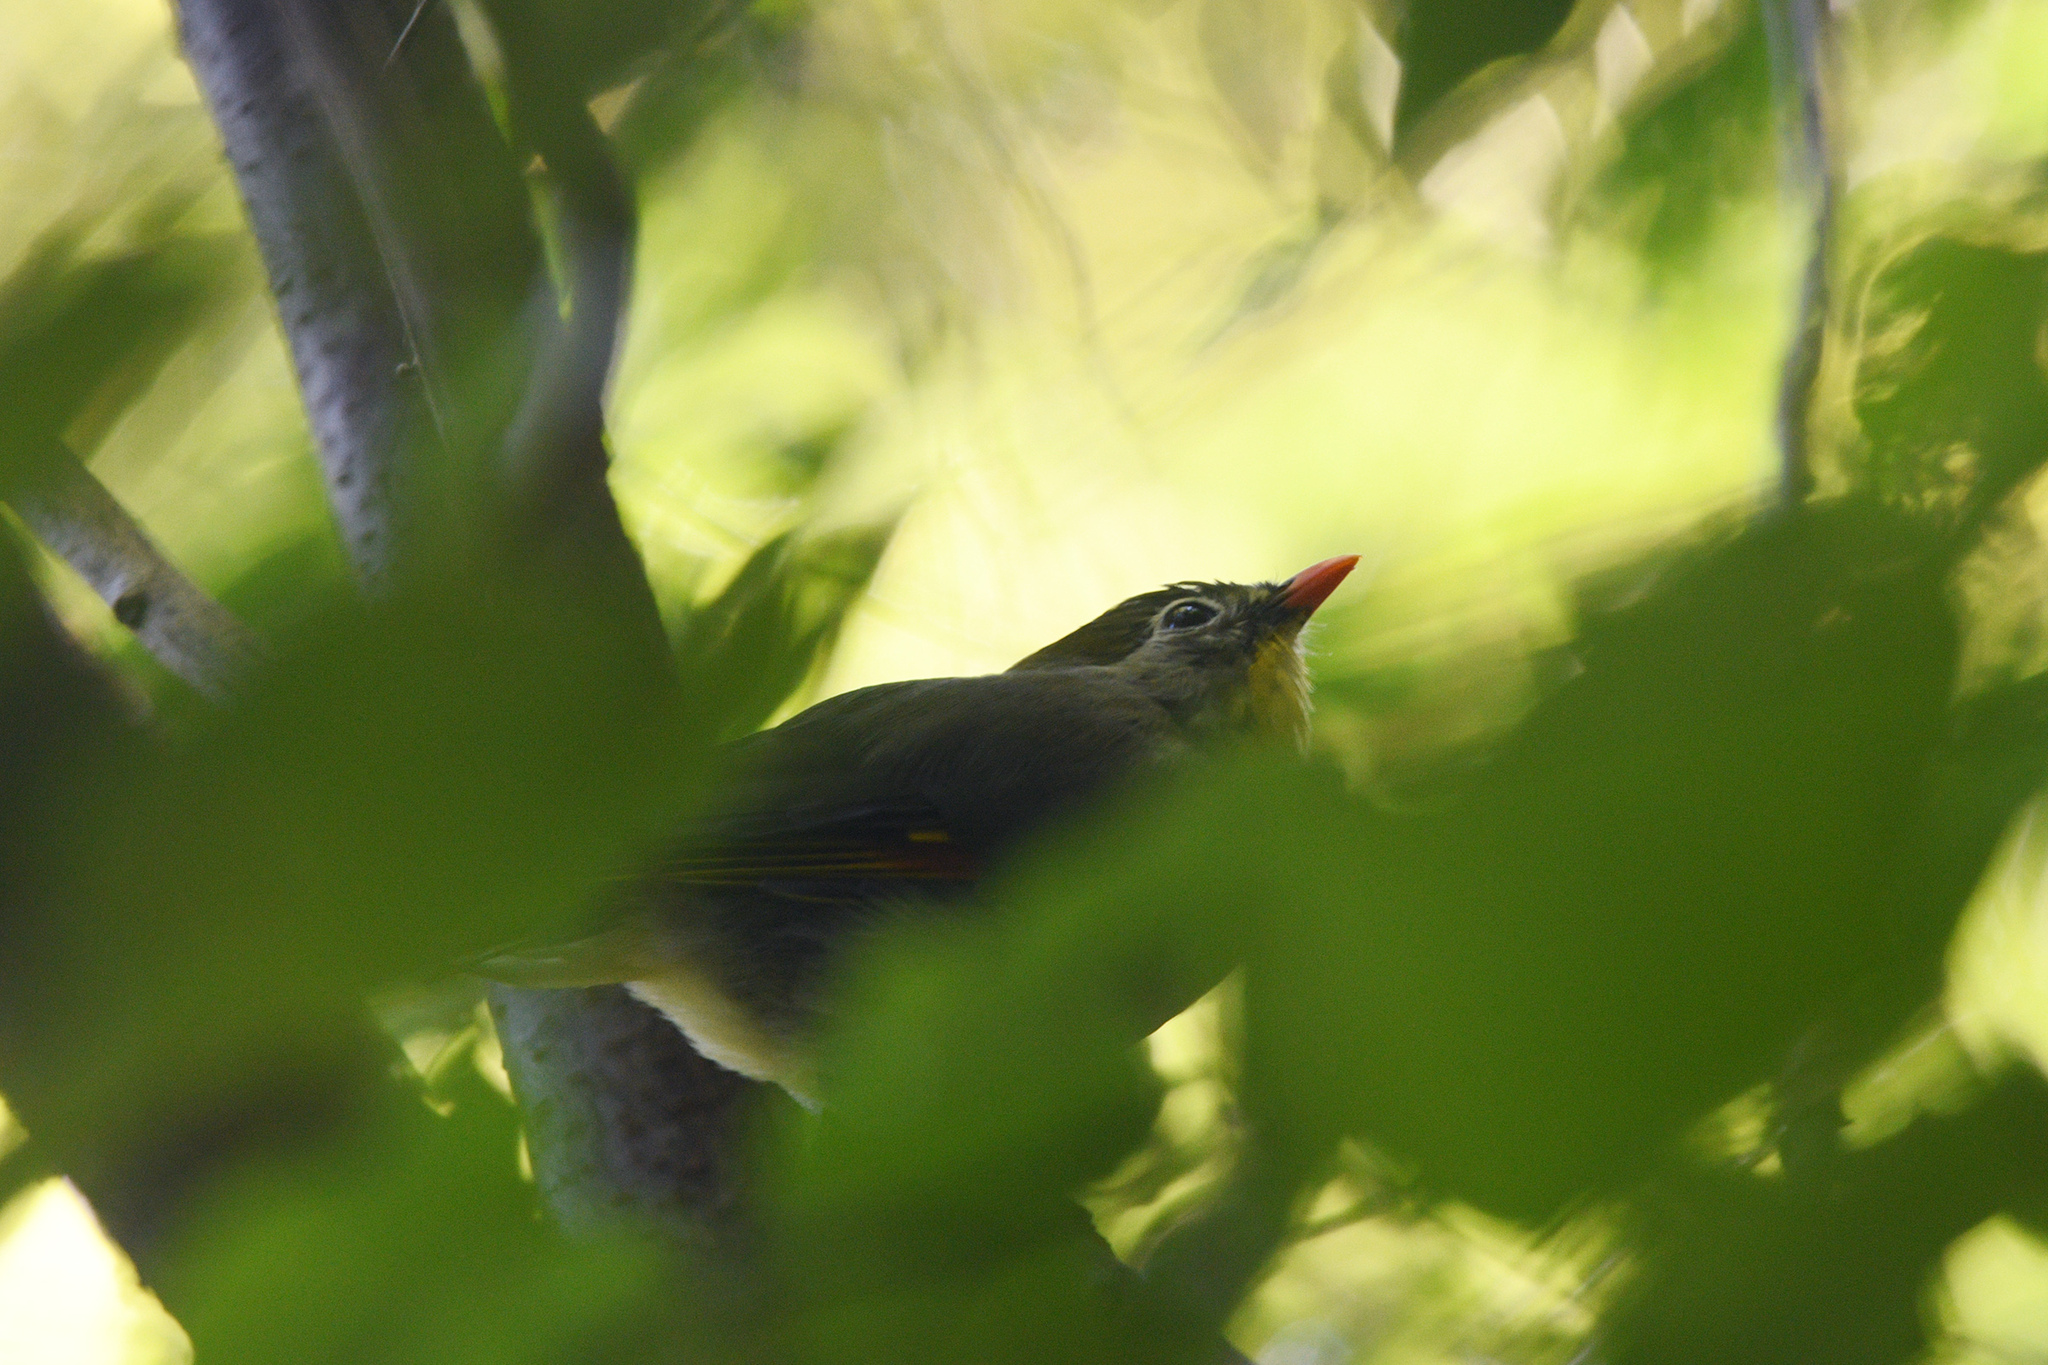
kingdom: Animalia
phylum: Chordata
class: Aves
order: Passeriformes
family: Leiothrichidae
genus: Leiothrix
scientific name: Leiothrix lutea
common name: Red-billed leiothrix
